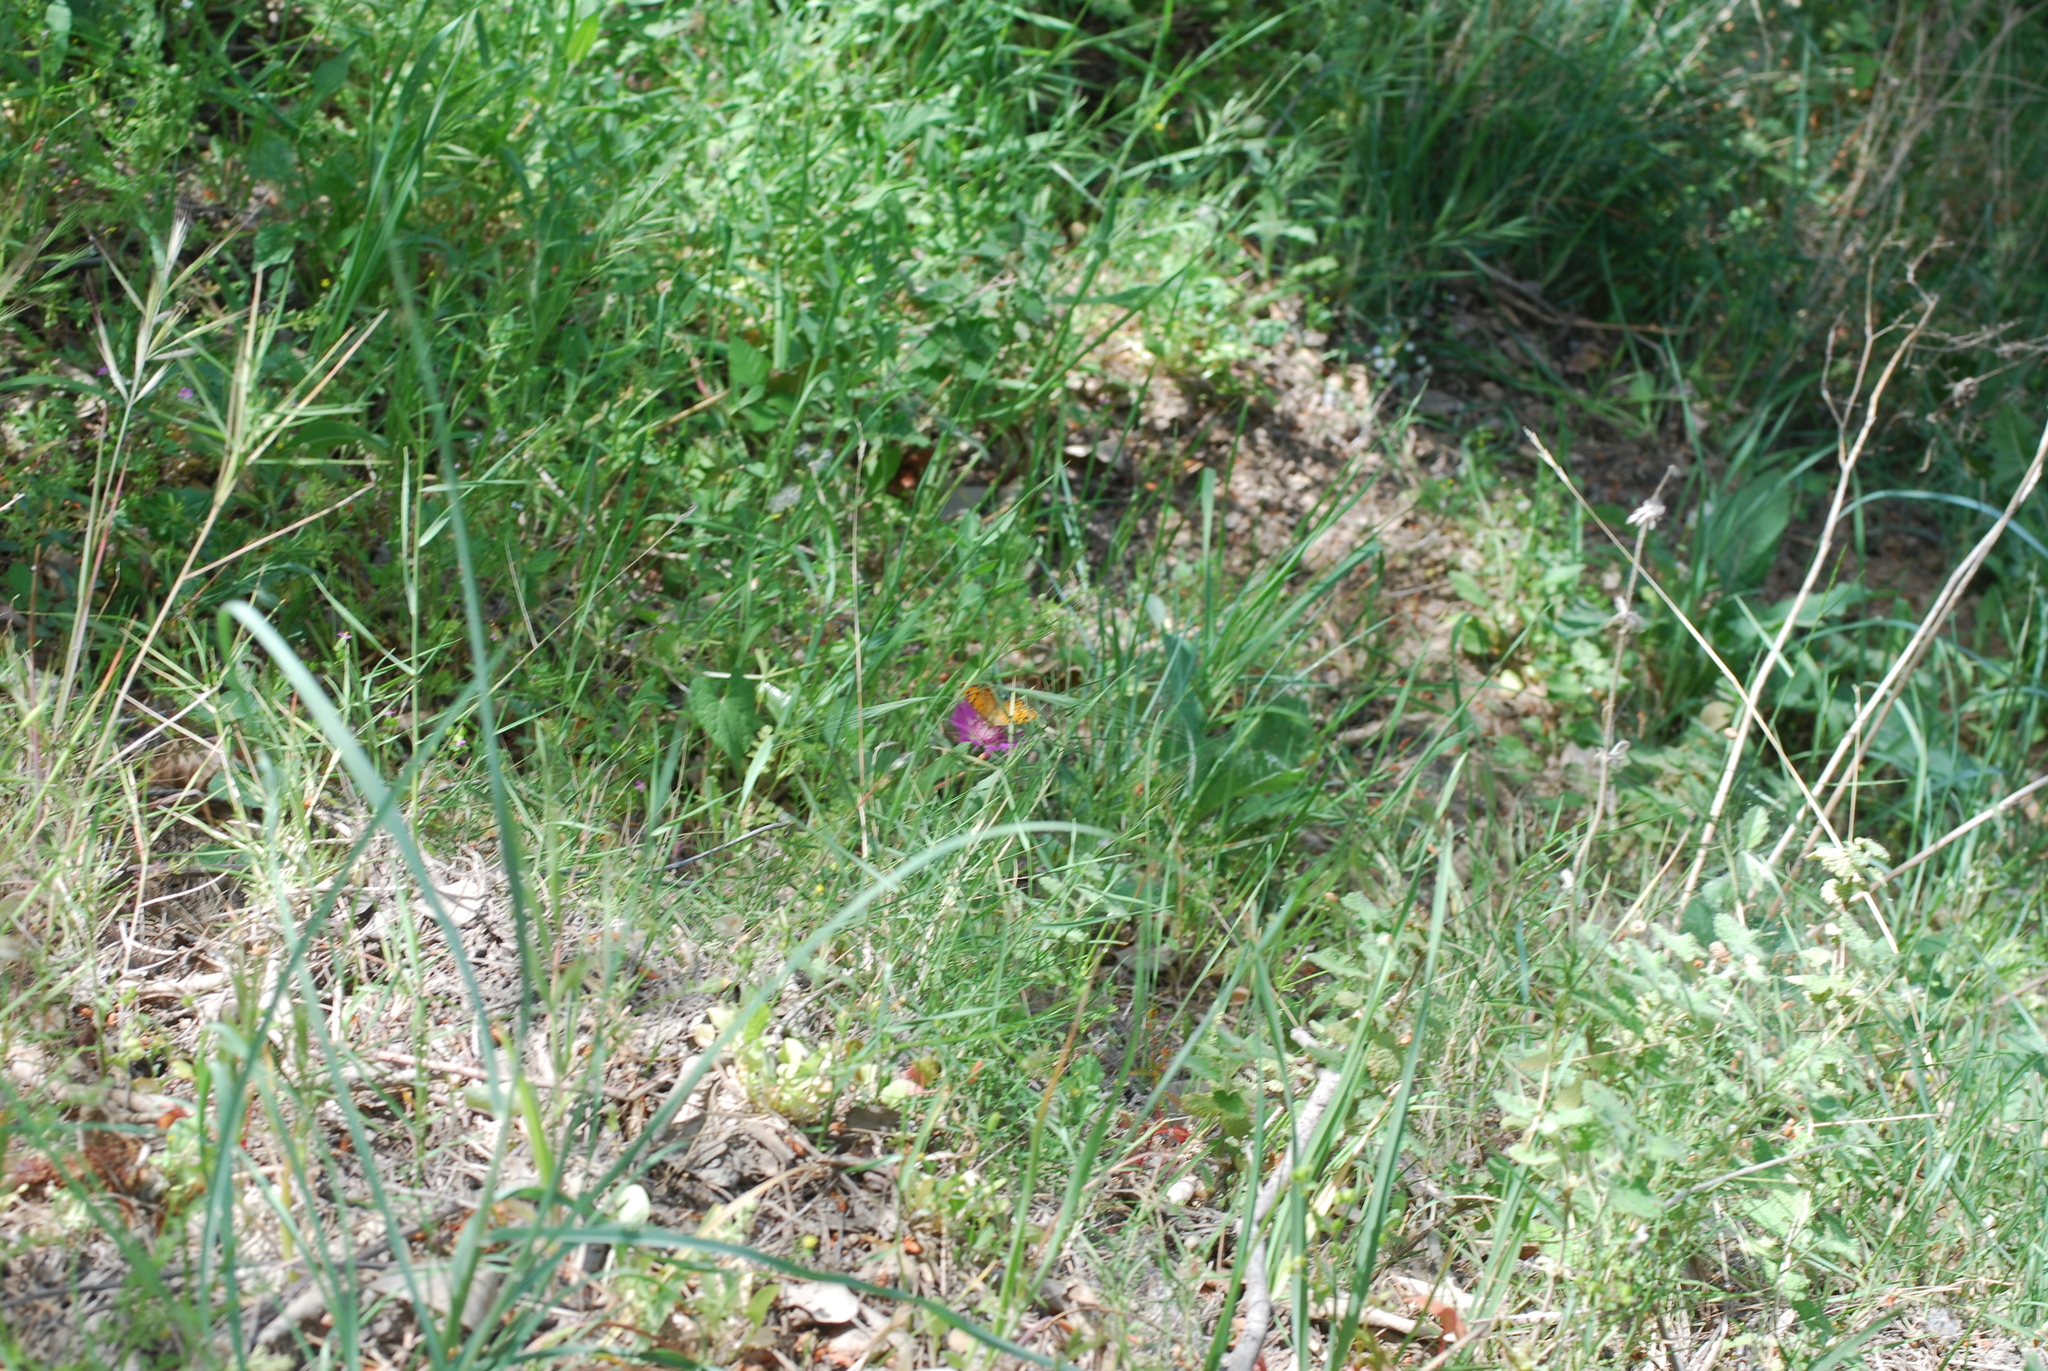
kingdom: Animalia
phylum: Arthropoda
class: Insecta
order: Lepidoptera
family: Nymphalidae
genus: Pararge
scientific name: Pararge Lasiommata megera
